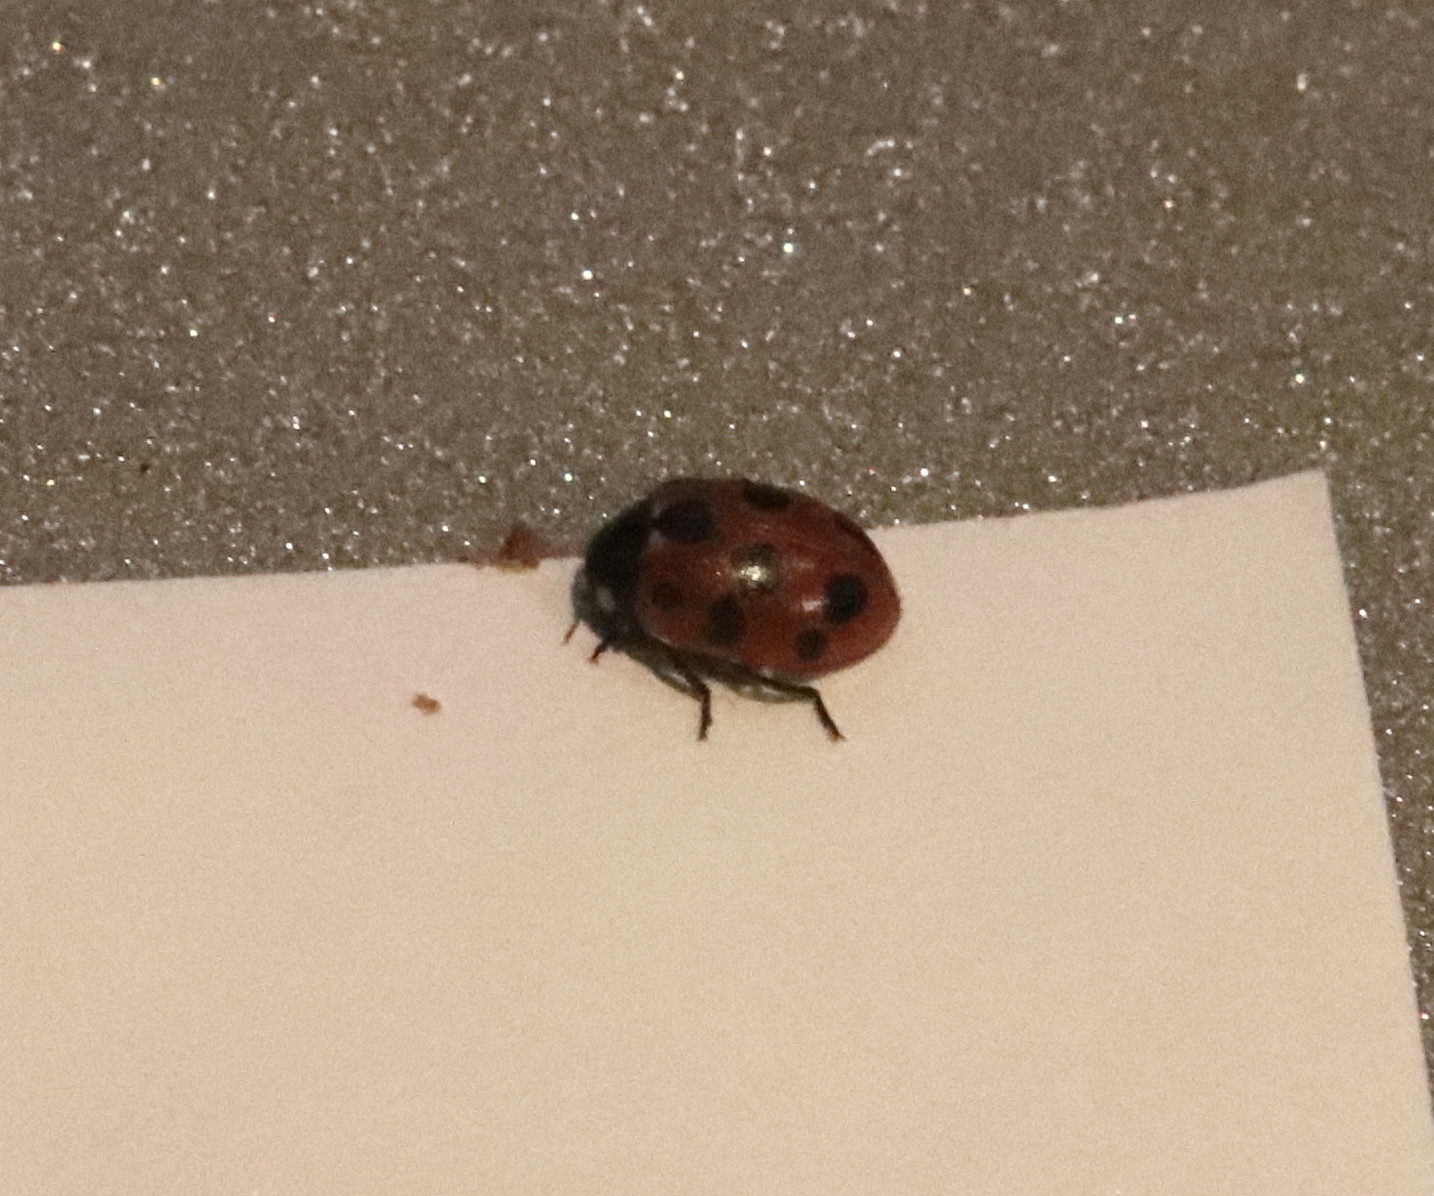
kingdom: Animalia
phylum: Arthropoda
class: Insecta
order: Coleoptera
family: Coccinellidae
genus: Coccinella
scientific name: Coccinella undecimpunctata
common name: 11-spot ladybird
